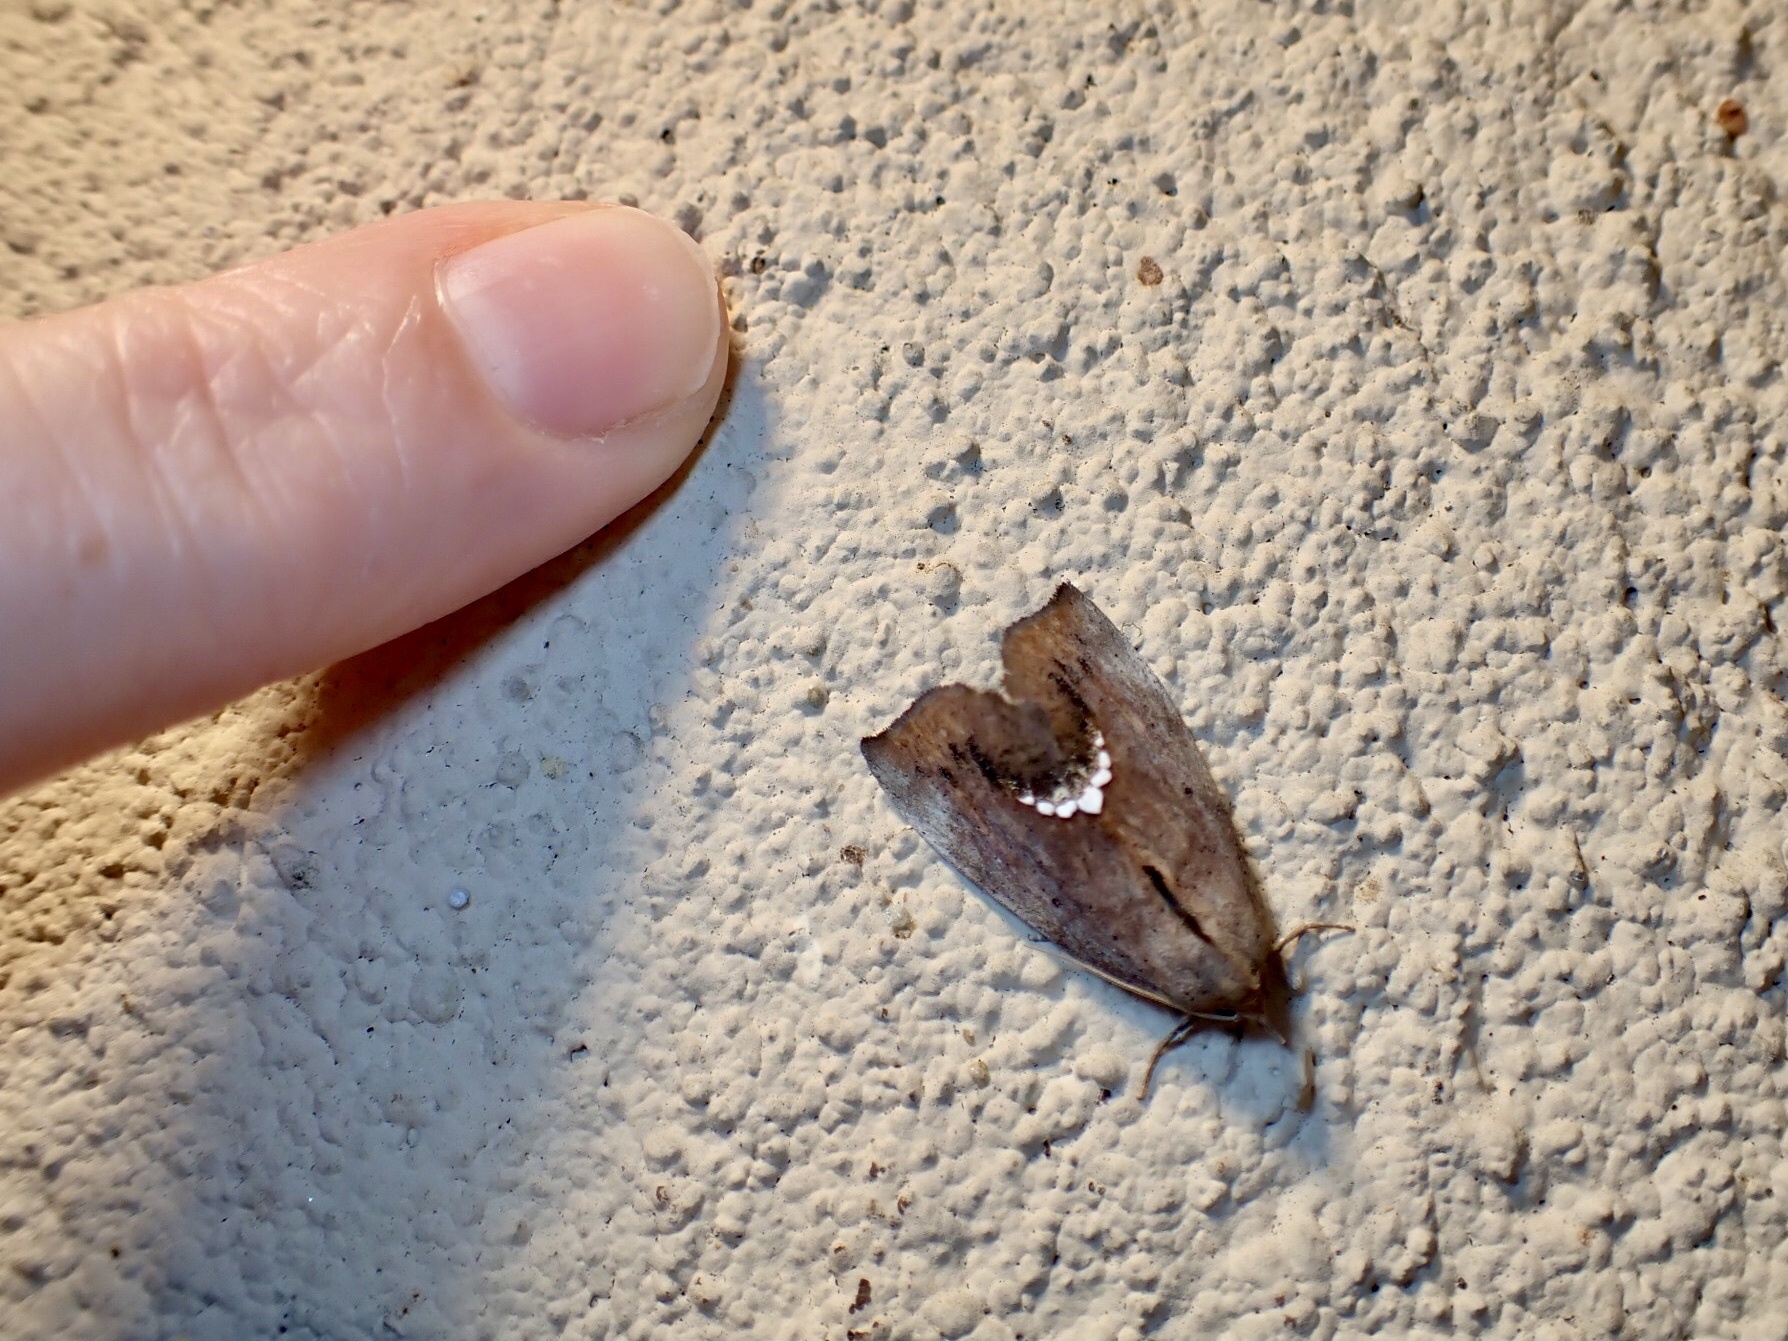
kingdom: Animalia
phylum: Arthropoda
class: Insecta
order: Lepidoptera
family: Erebidae
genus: Hypsoropha
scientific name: Hypsoropha hormos
